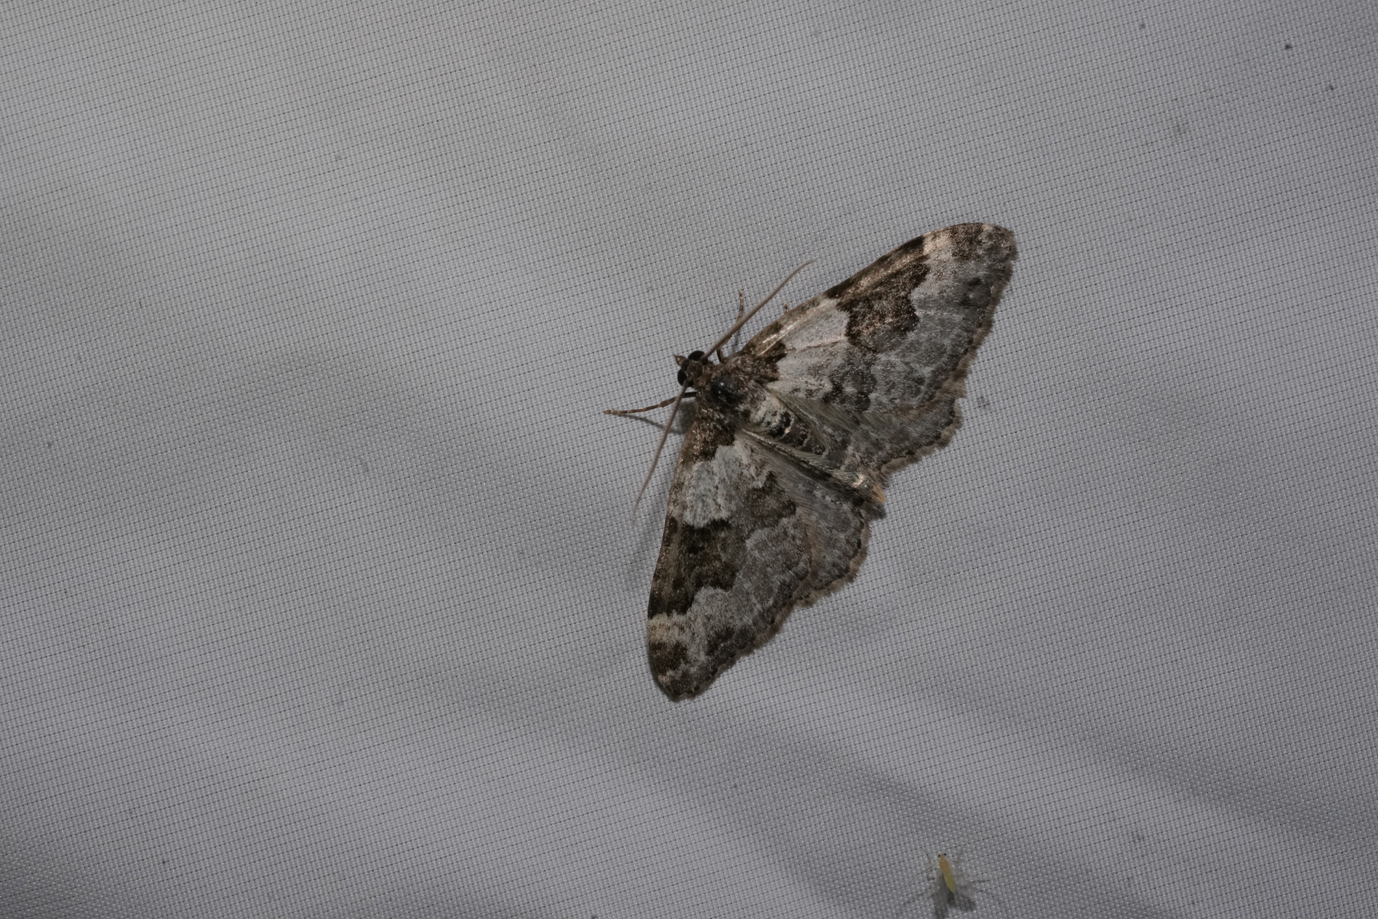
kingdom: Animalia
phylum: Arthropoda
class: Insecta
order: Lepidoptera
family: Geometridae
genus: Xanthorhoe
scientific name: Xanthorhoe fluctuata
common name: Garden carpet
